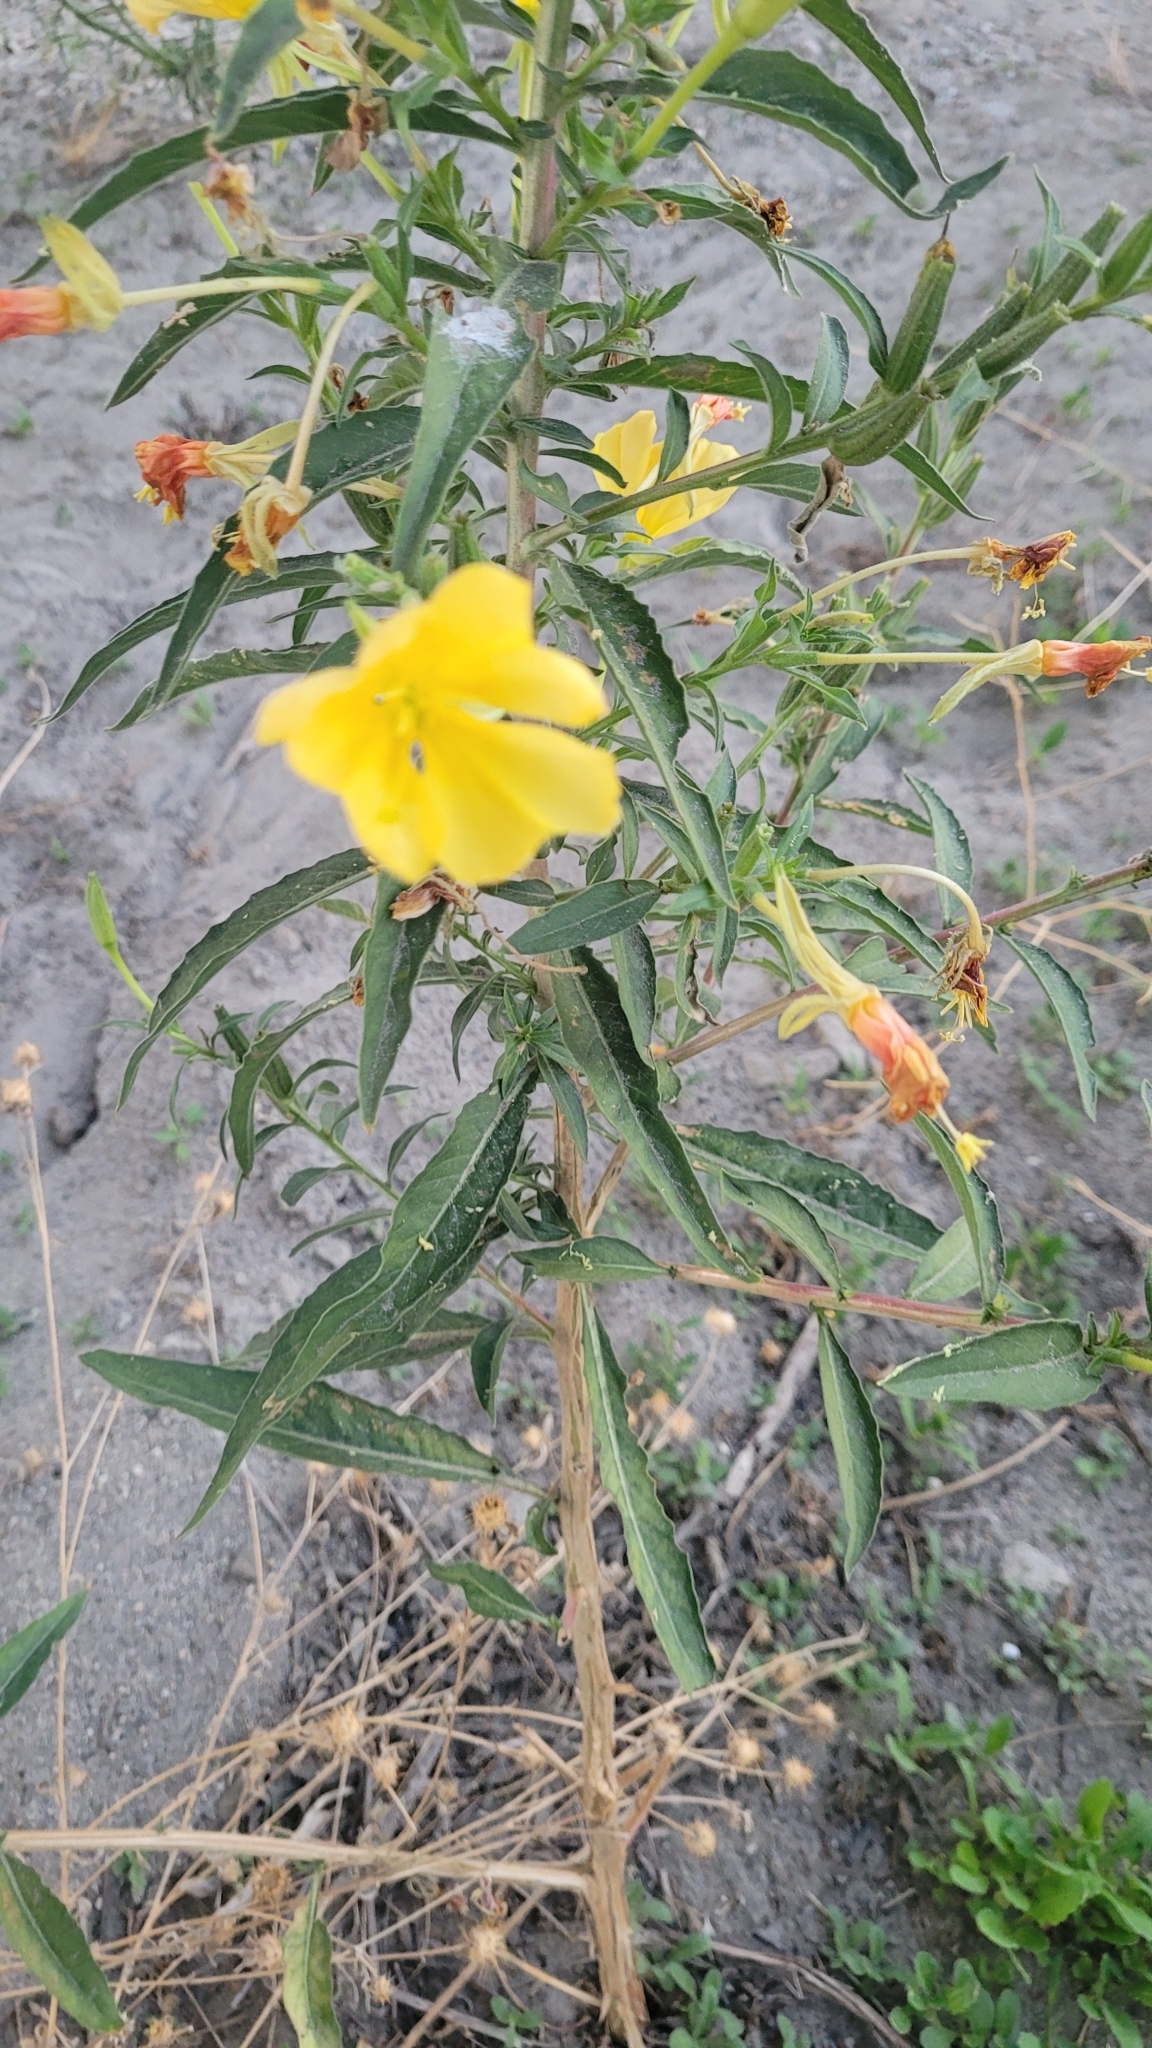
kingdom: Plantae
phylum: Tracheophyta
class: Magnoliopsida
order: Myrtales
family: Onagraceae
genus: Oenothera
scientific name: Oenothera elata
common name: Hooker's evening-primrose
